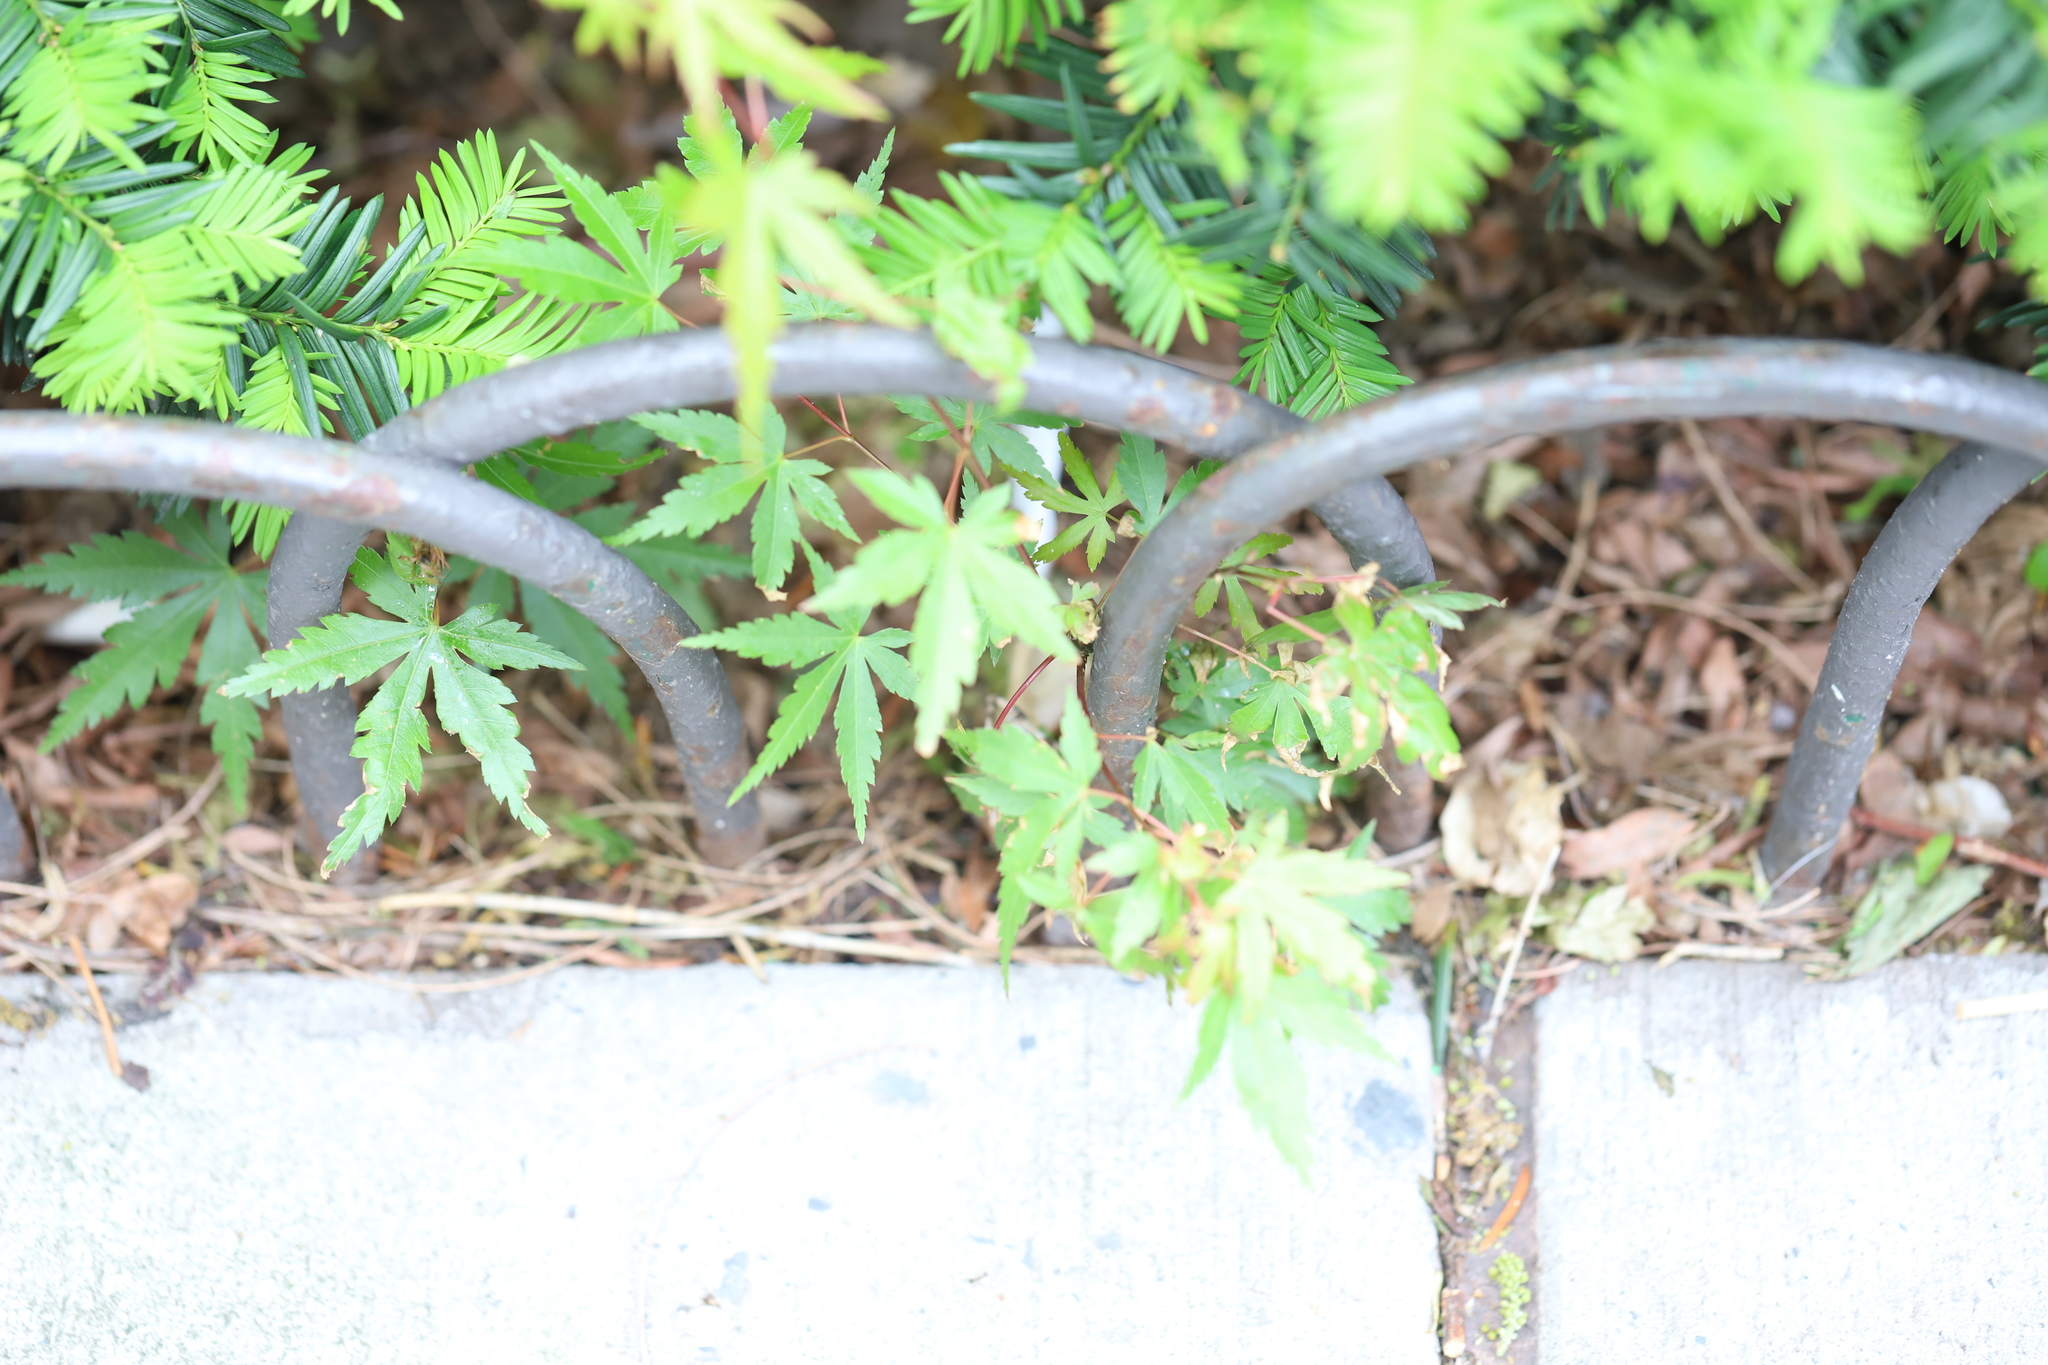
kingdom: Plantae
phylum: Tracheophyta
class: Magnoliopsida
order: Sapindales
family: Sapindaceae
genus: Acer
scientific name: Acer palmatum
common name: Japanese maple
